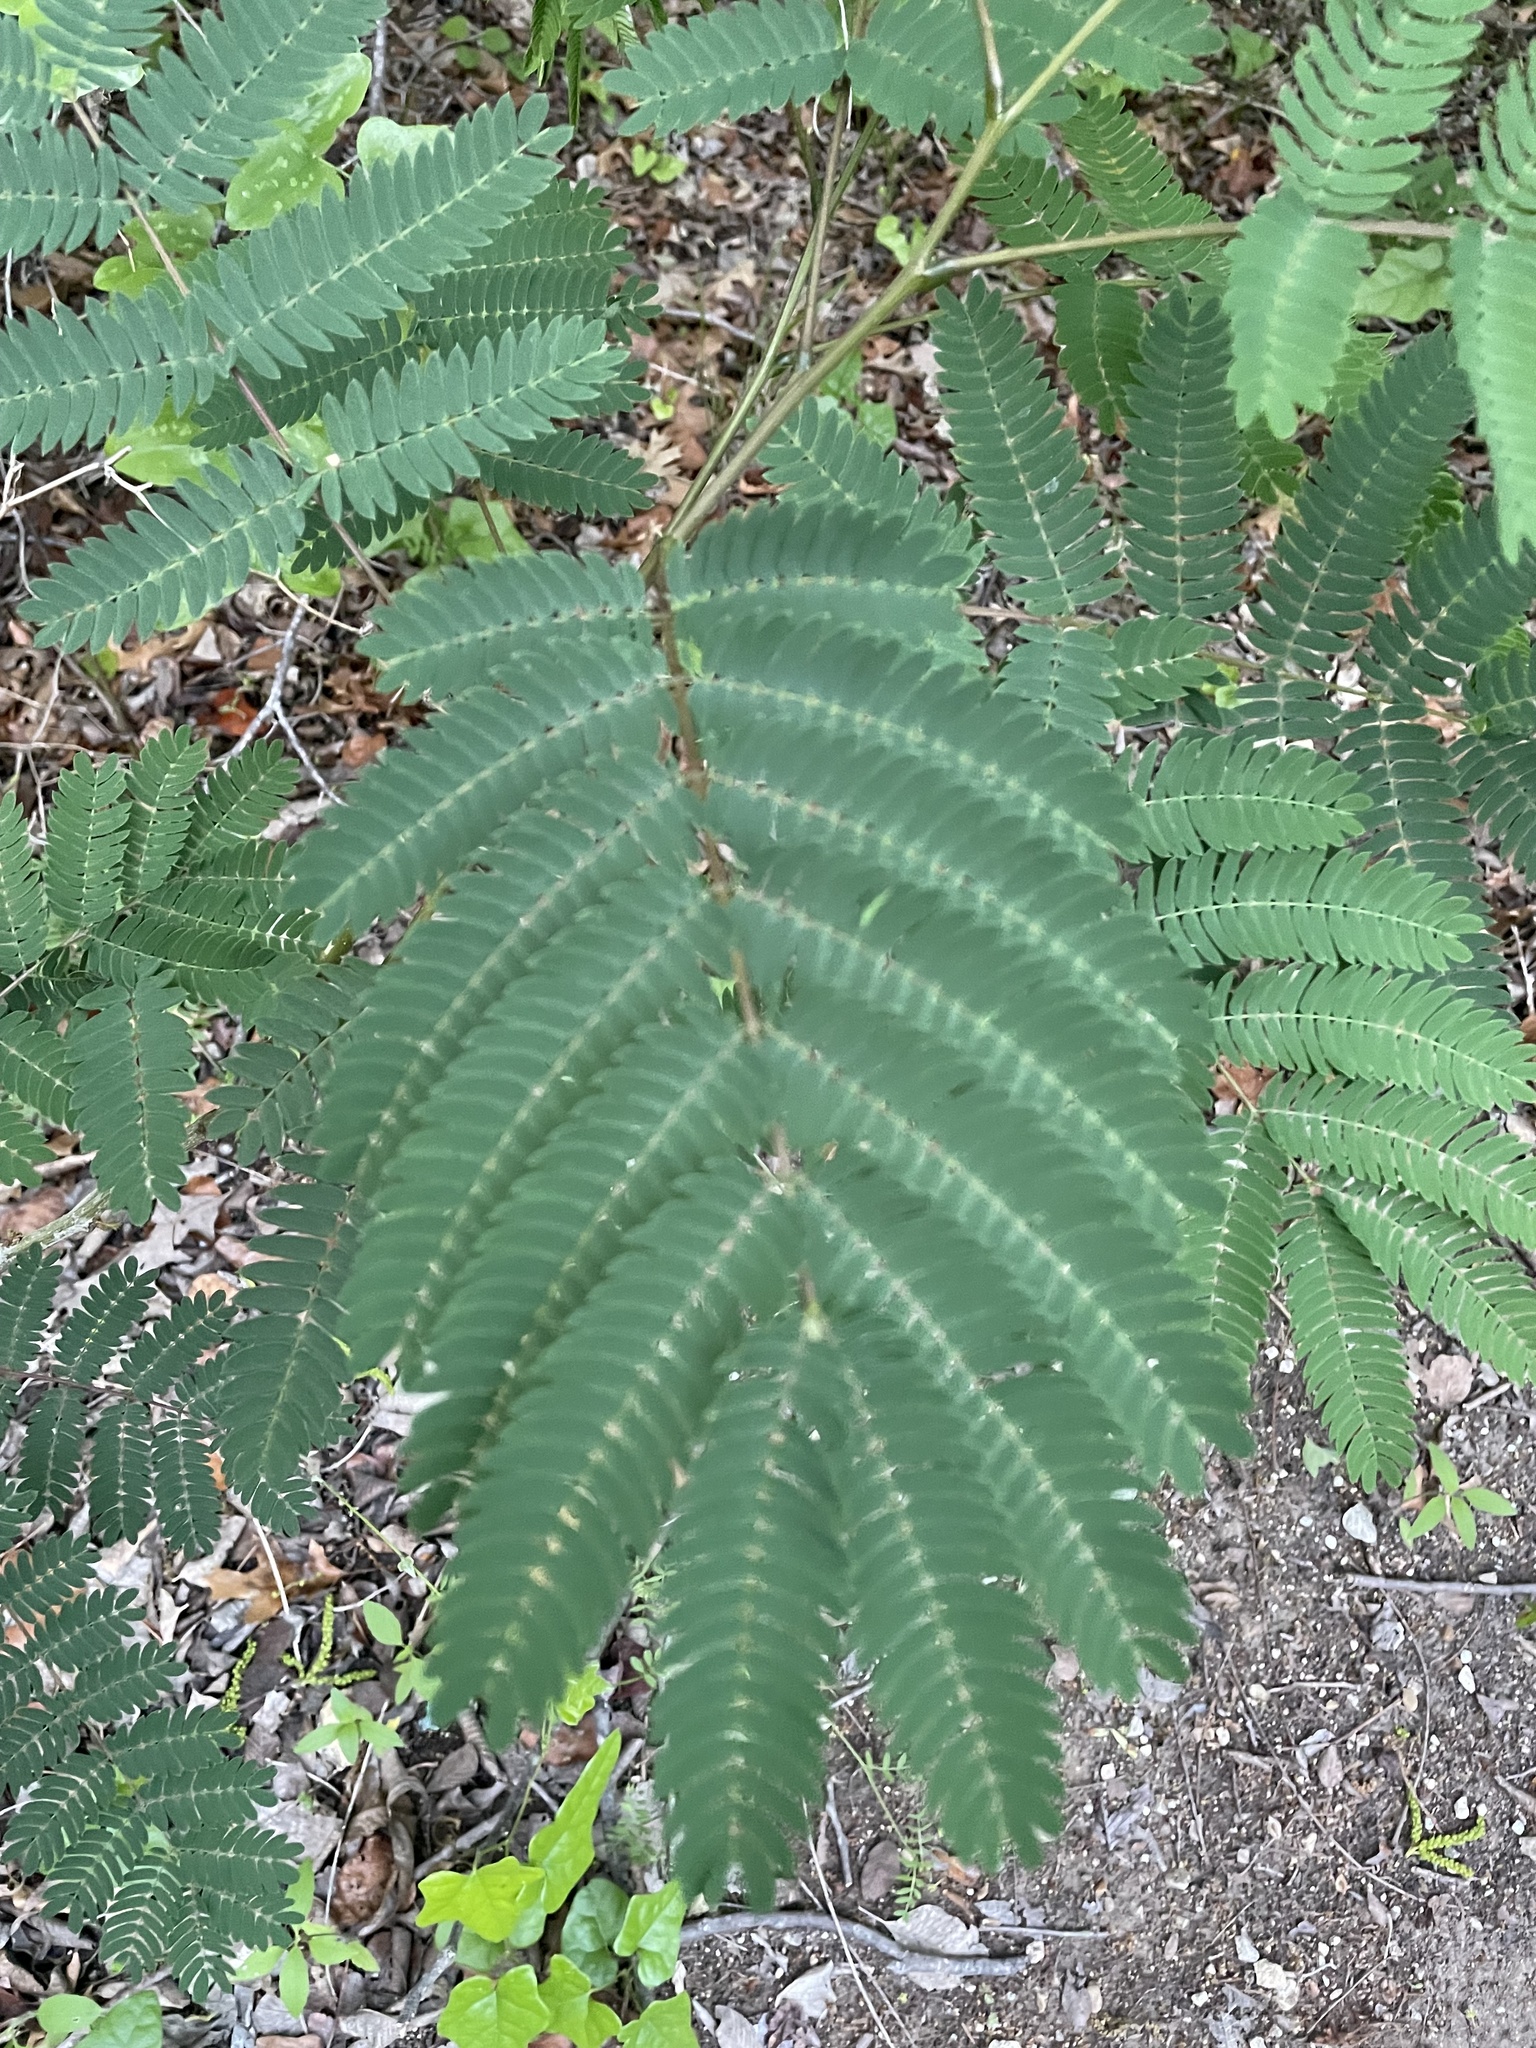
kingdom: Plantae
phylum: Tracheophyta
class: Magnoliopsida
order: Fabales
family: Fabaceae
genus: Albizia
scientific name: Albizia julibrissin
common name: Silktree
